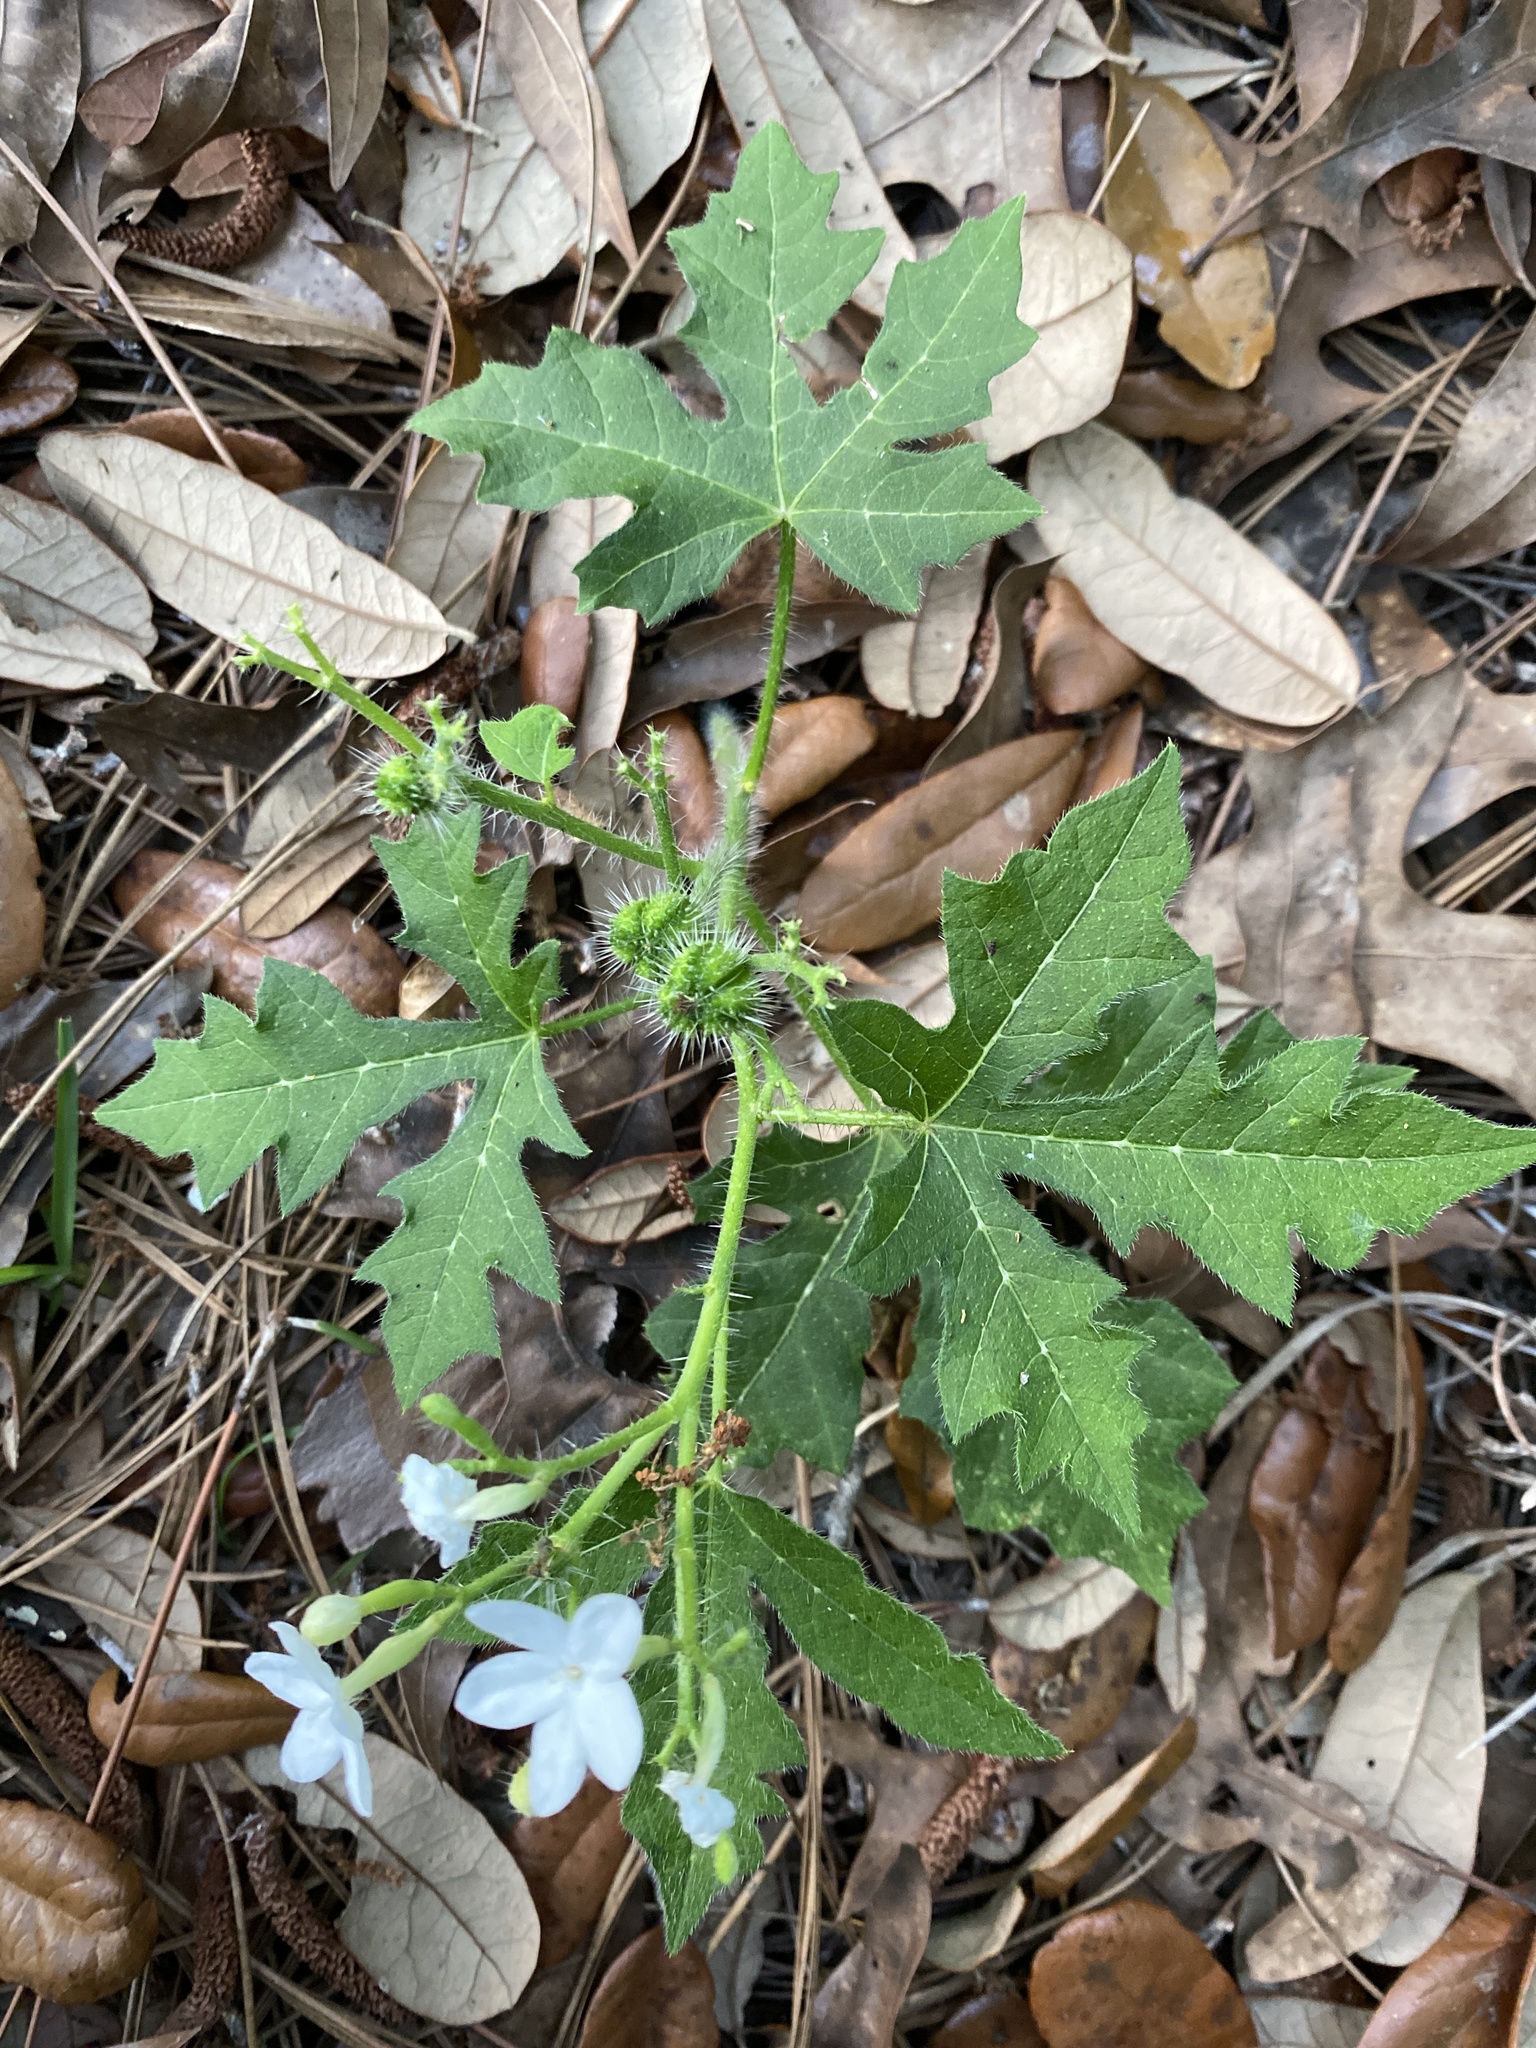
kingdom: Plantae
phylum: Tracheophyta
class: Magnoliopsida
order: Malpighiales
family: Euphorbiaceae
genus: Cnidoscolus
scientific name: Cnidoscolus stimulosus
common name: Bull-nettle
